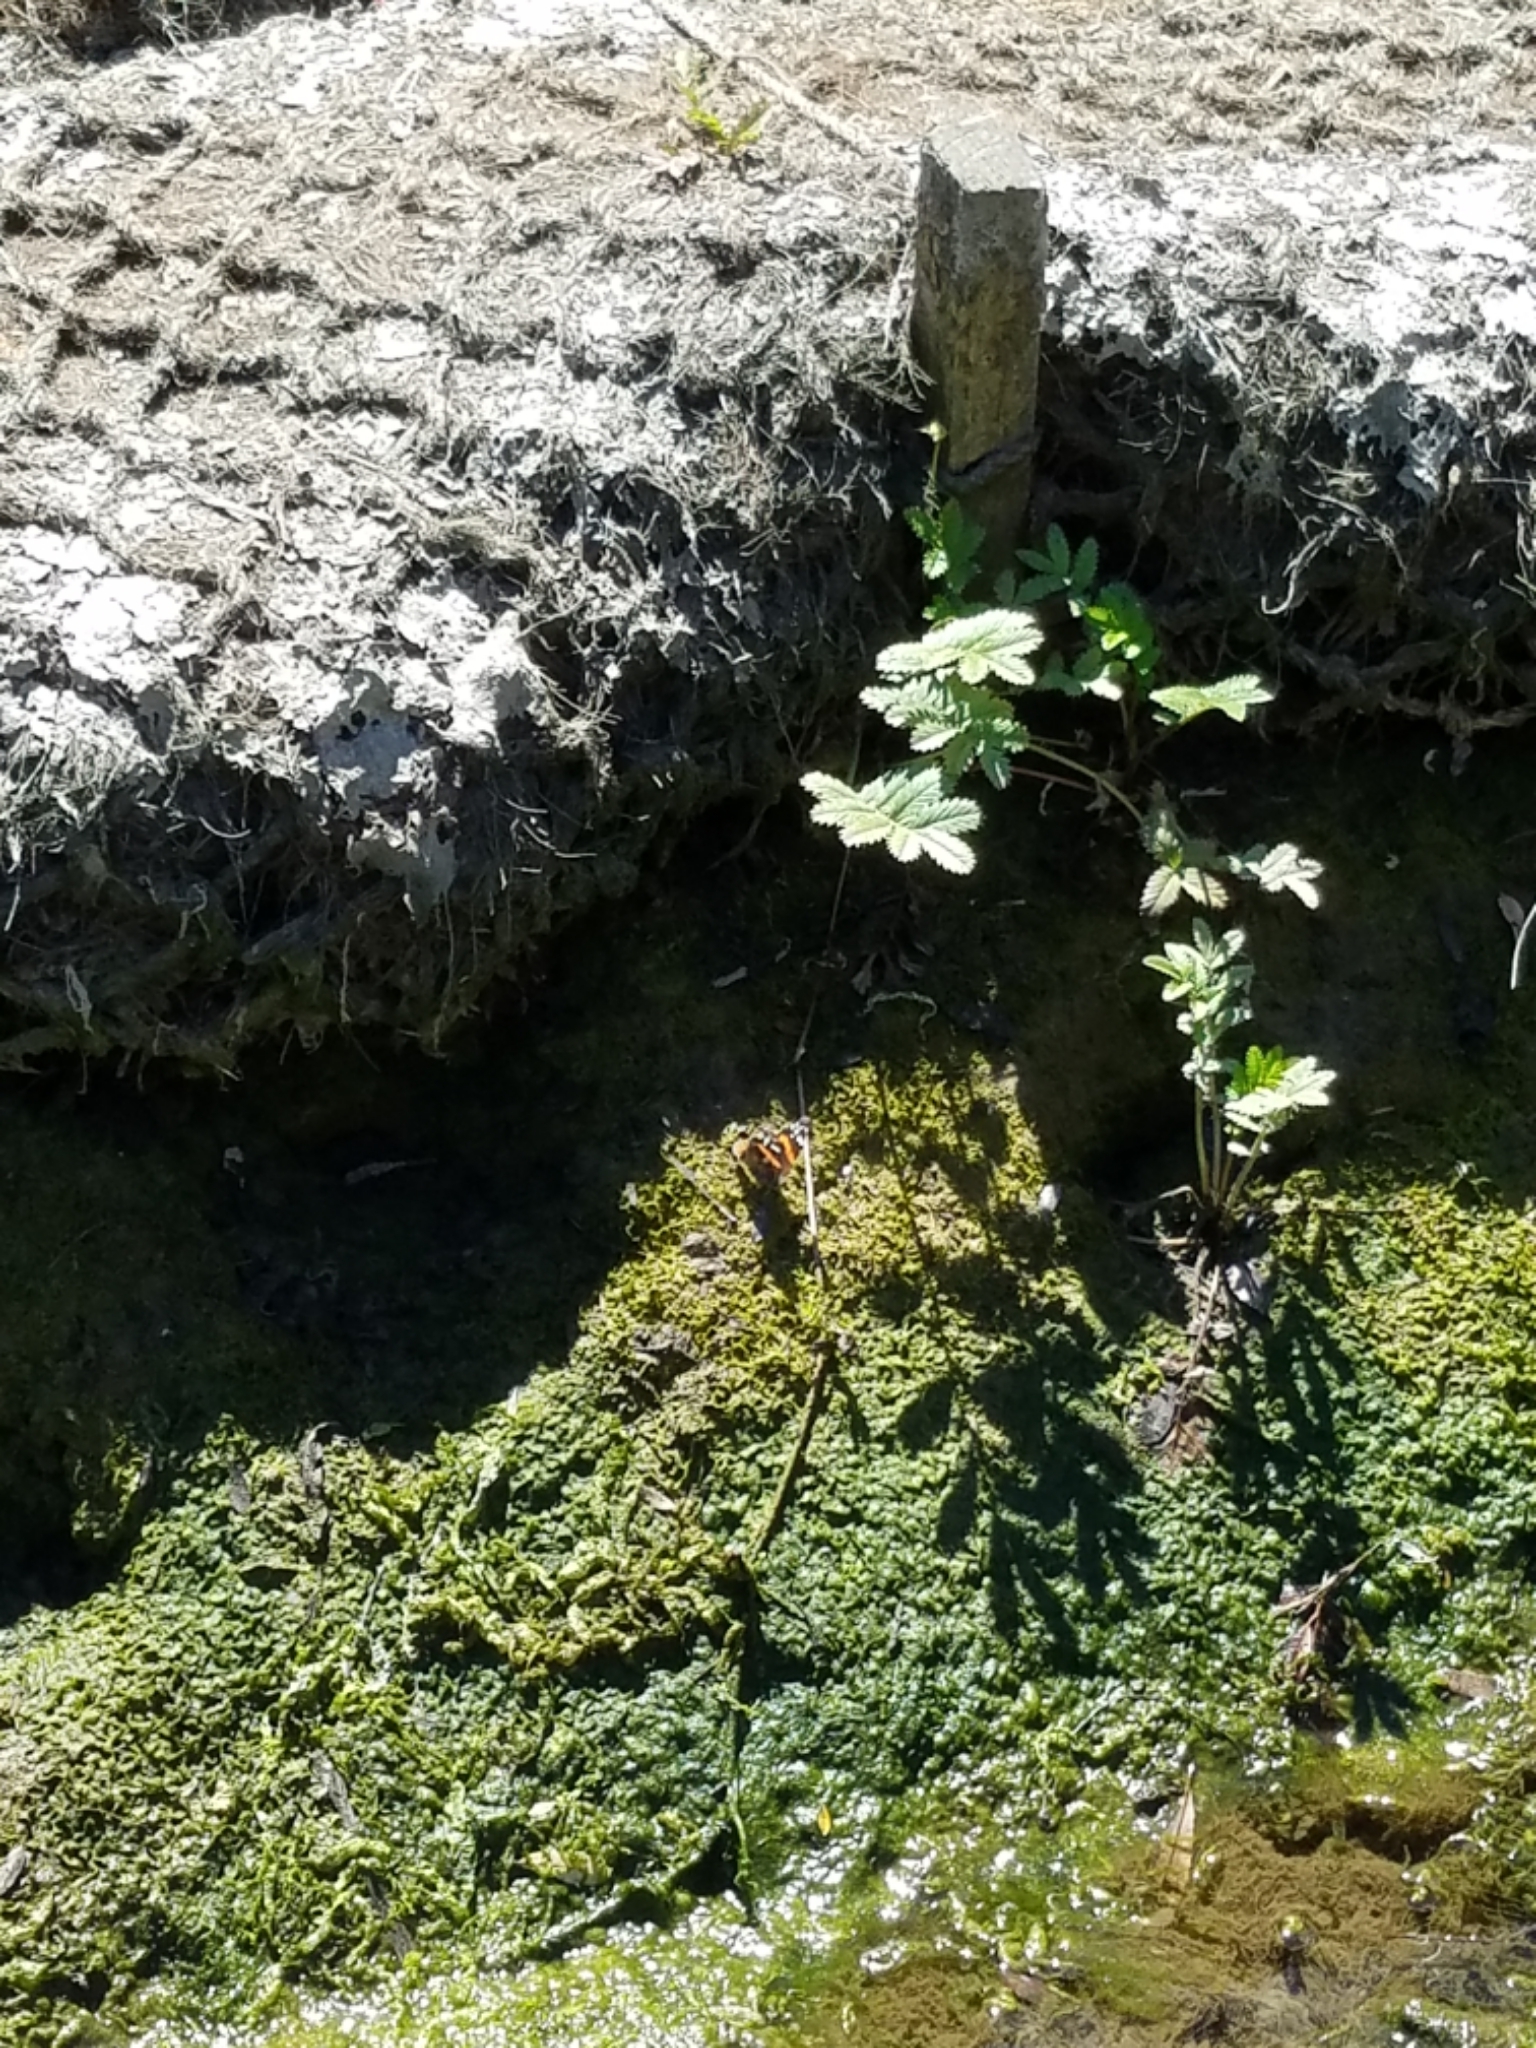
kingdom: Animalia
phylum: Arthropoda
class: Insecta
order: Lepidoptera
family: Nymphalidae
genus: Vanessa
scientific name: Vanessa atalanta
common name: Red admiral
